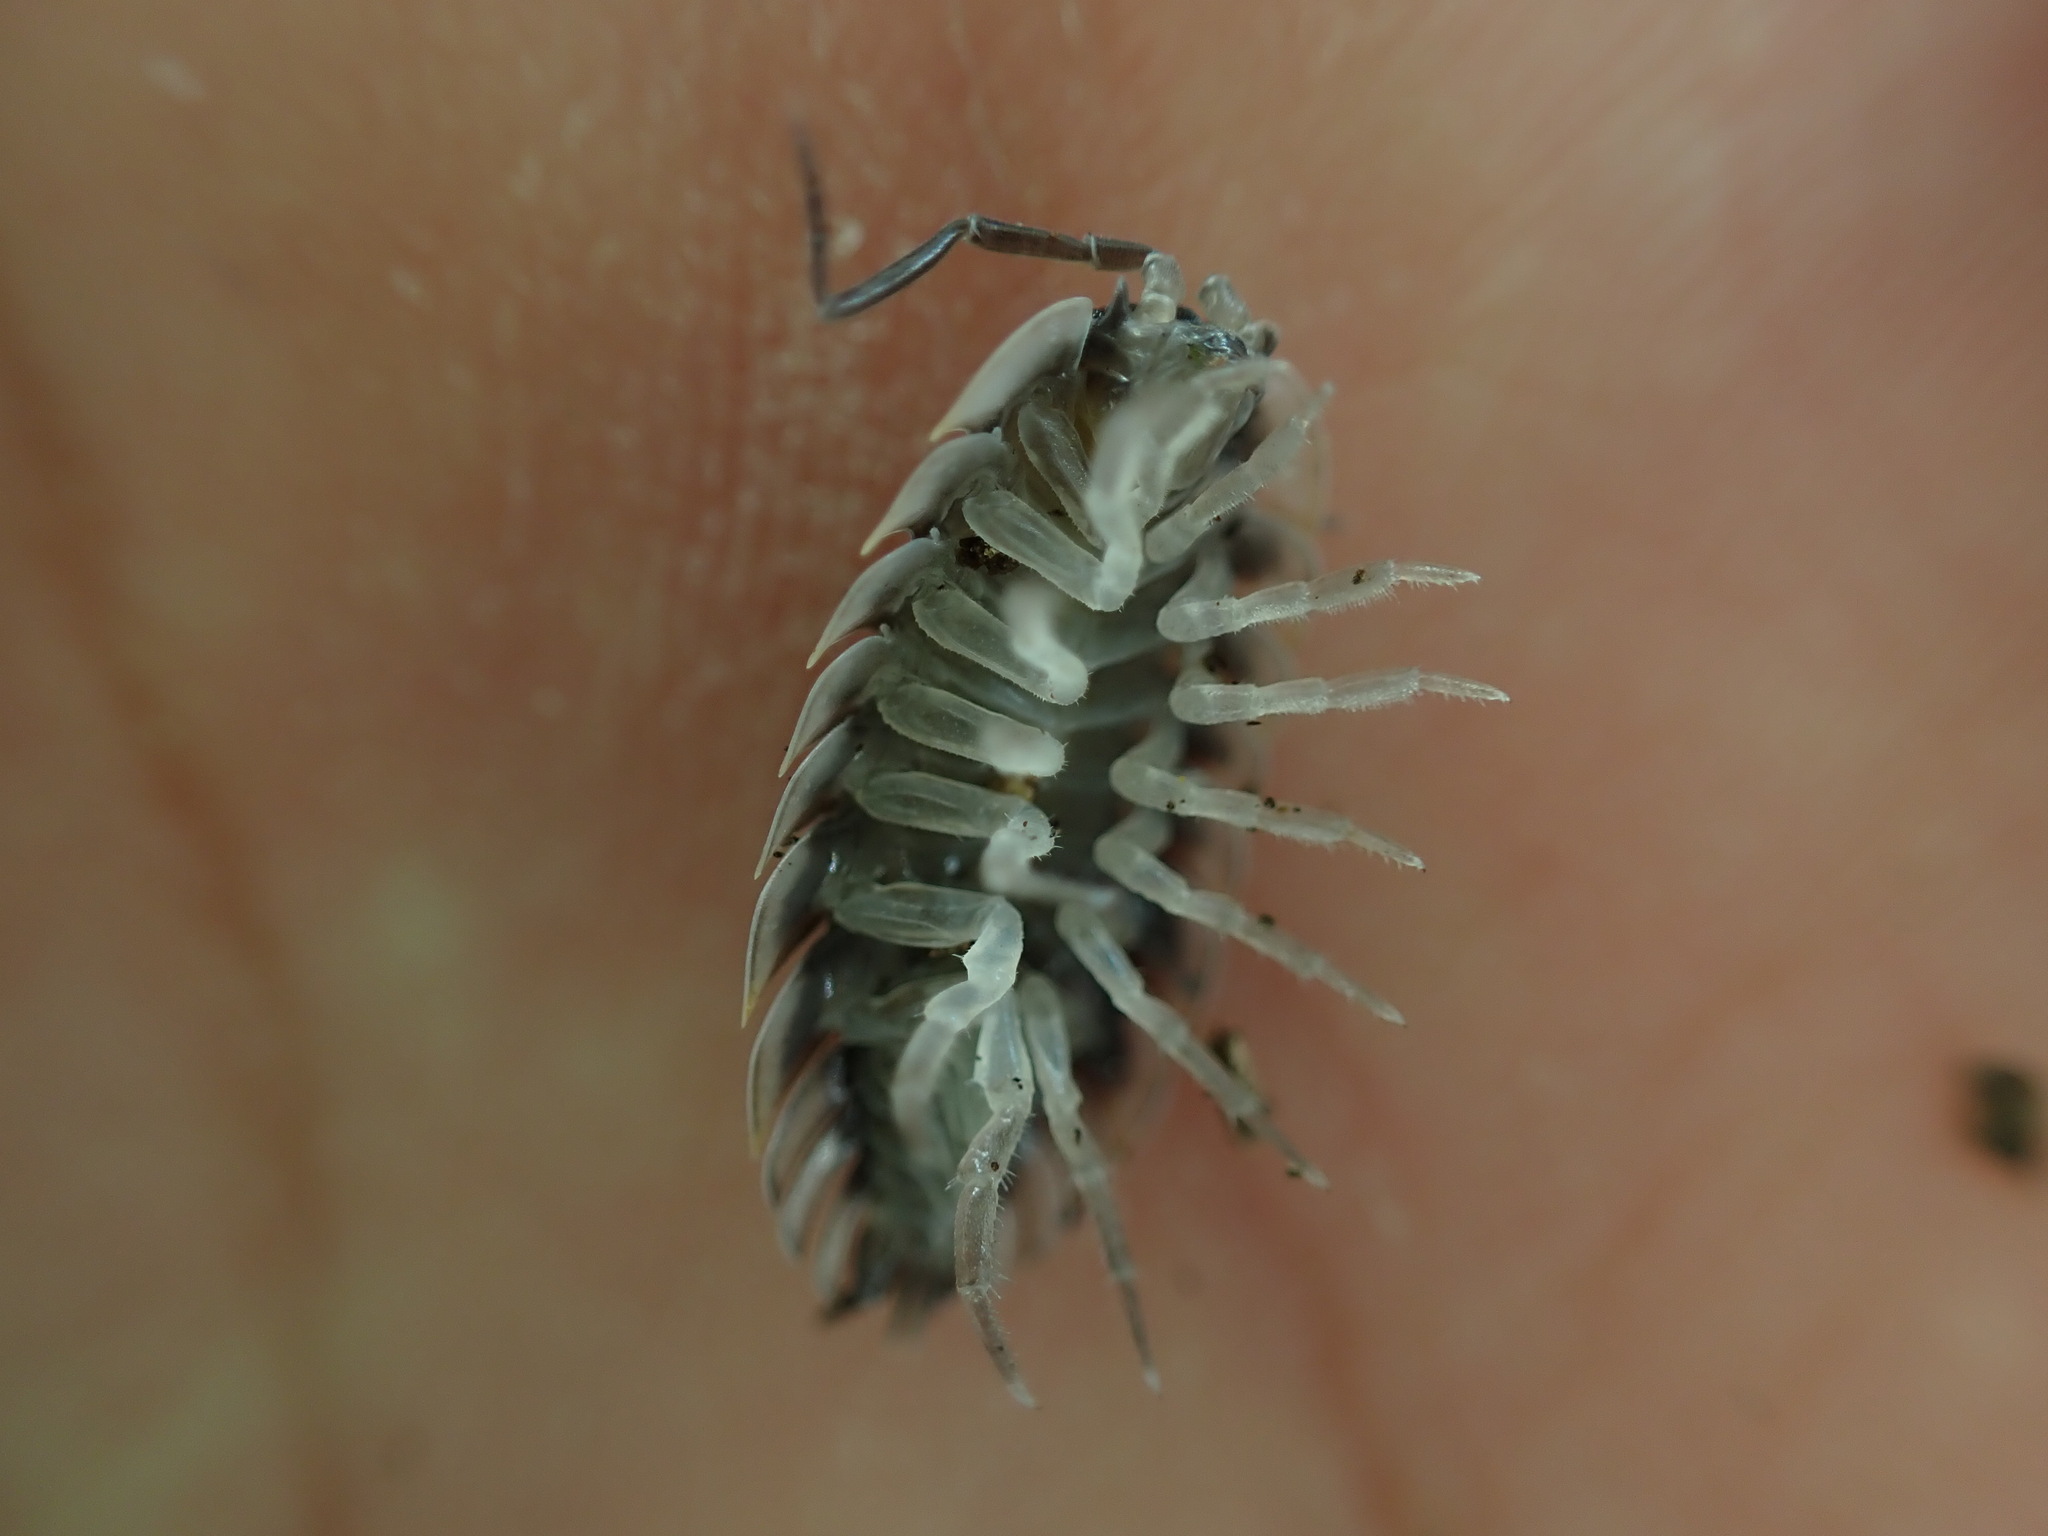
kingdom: Animalia
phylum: Arthropoda
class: Malacostraca
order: Isopoda
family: Oniscidae
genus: Oniscus
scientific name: Oniscus asellus
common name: Common shiny woodlouse
